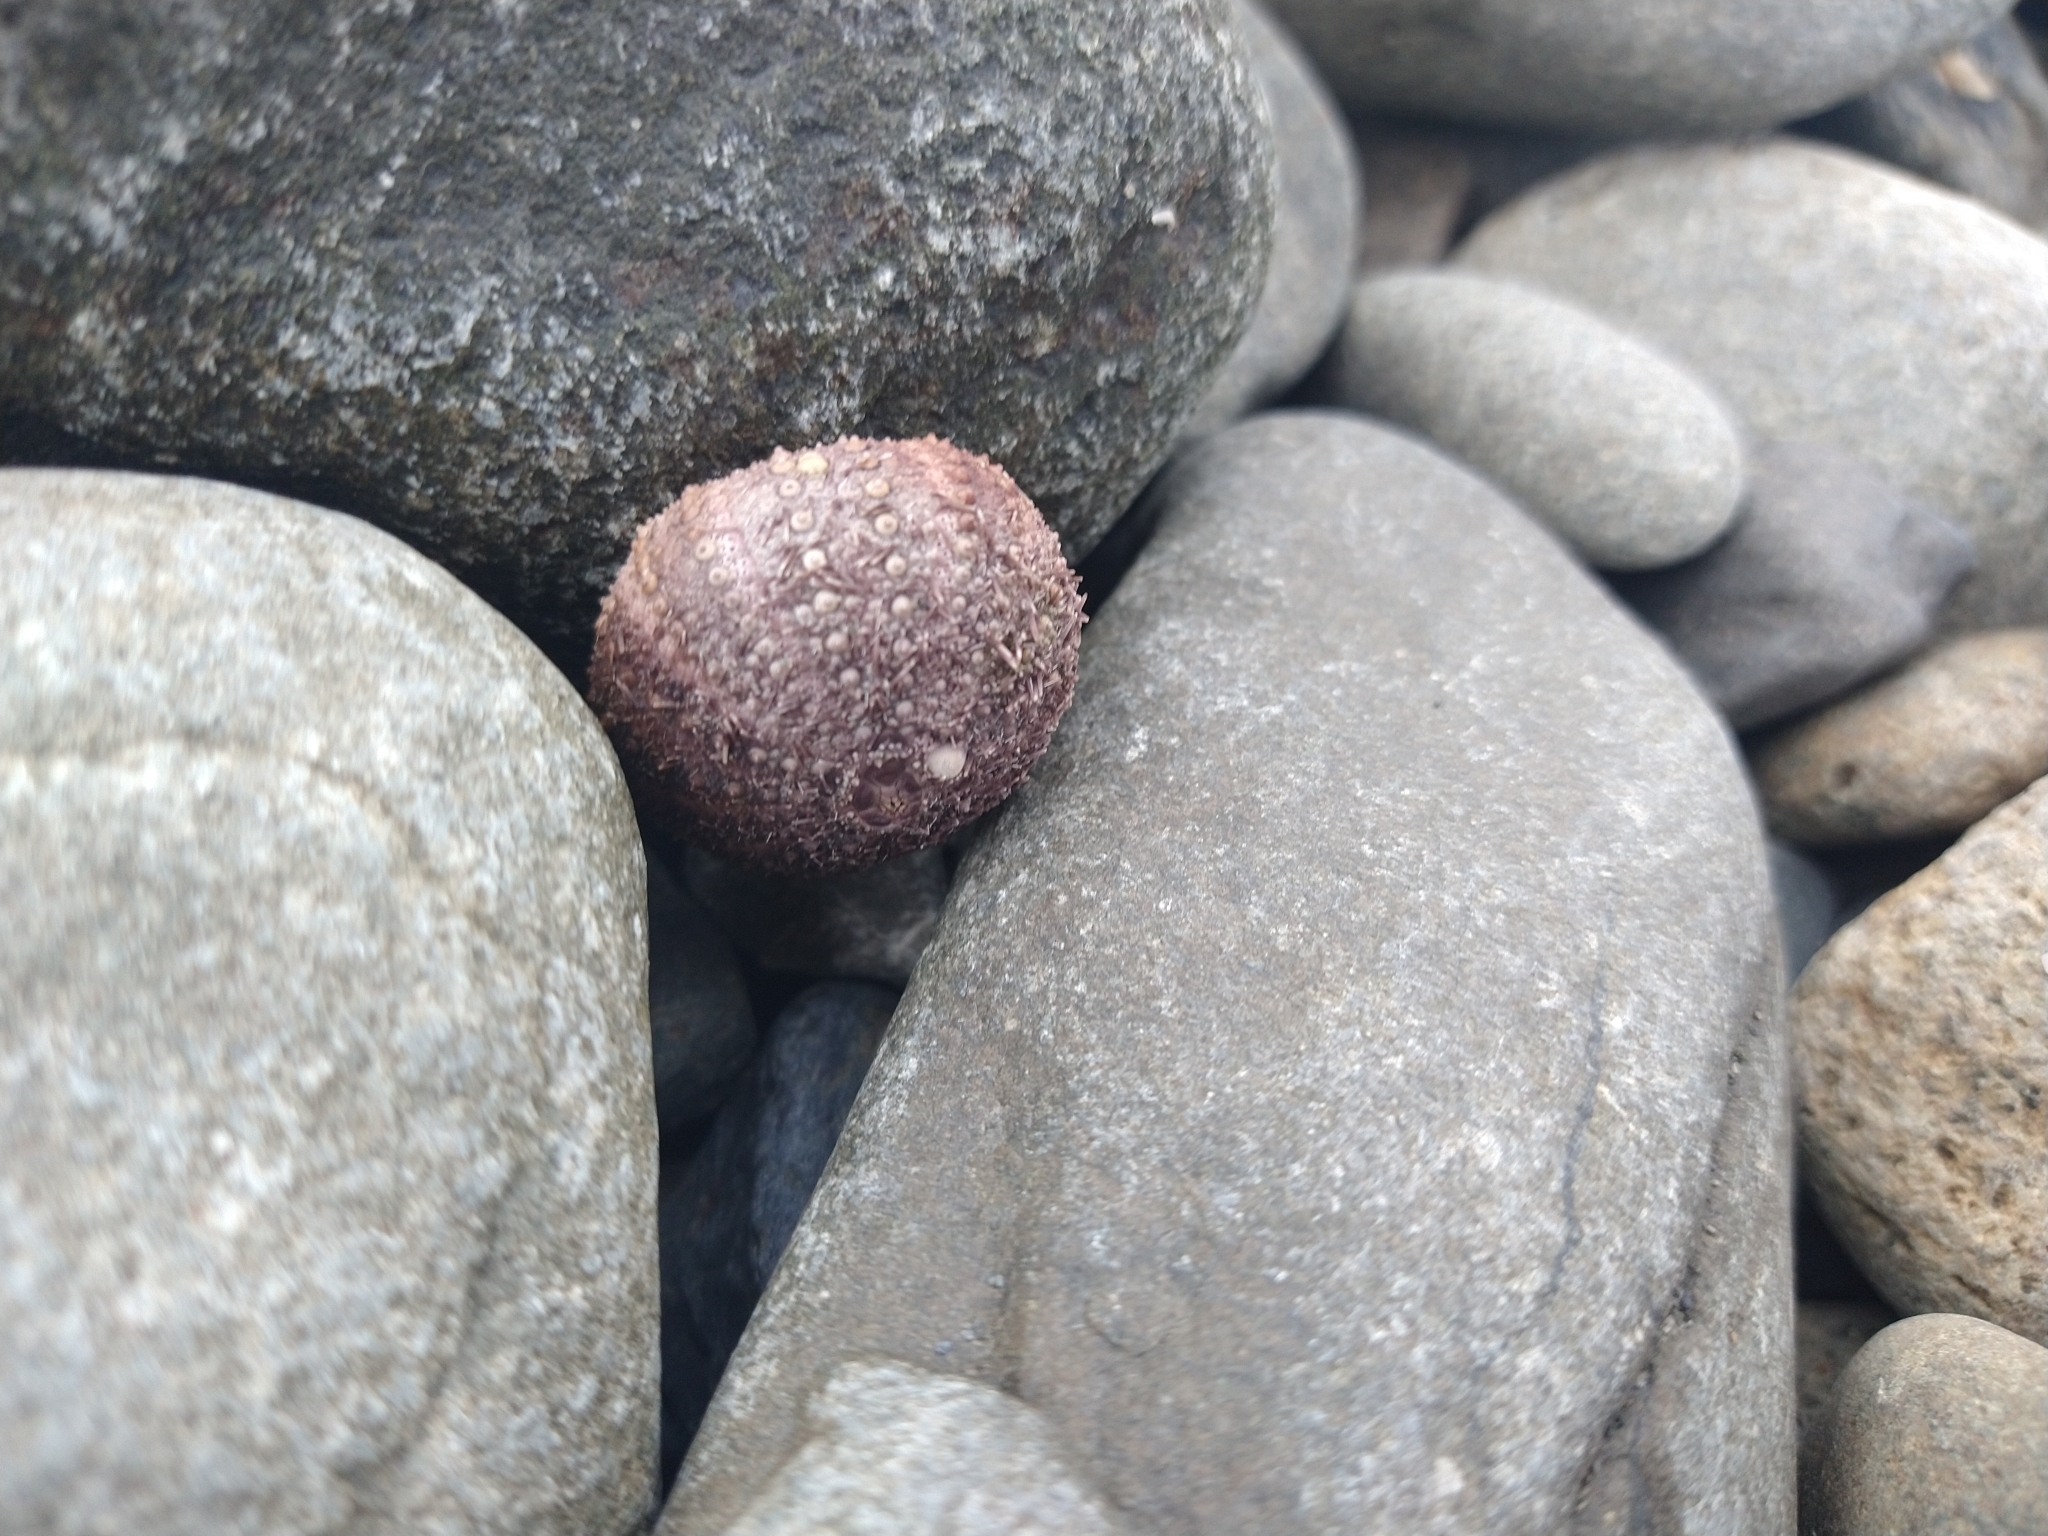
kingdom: Animalia
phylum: Echinodermata
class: Echinoidea
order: Camarodonta
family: Temnopleuridae
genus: Pseudechinus
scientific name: Pseudechinus magellanicus
